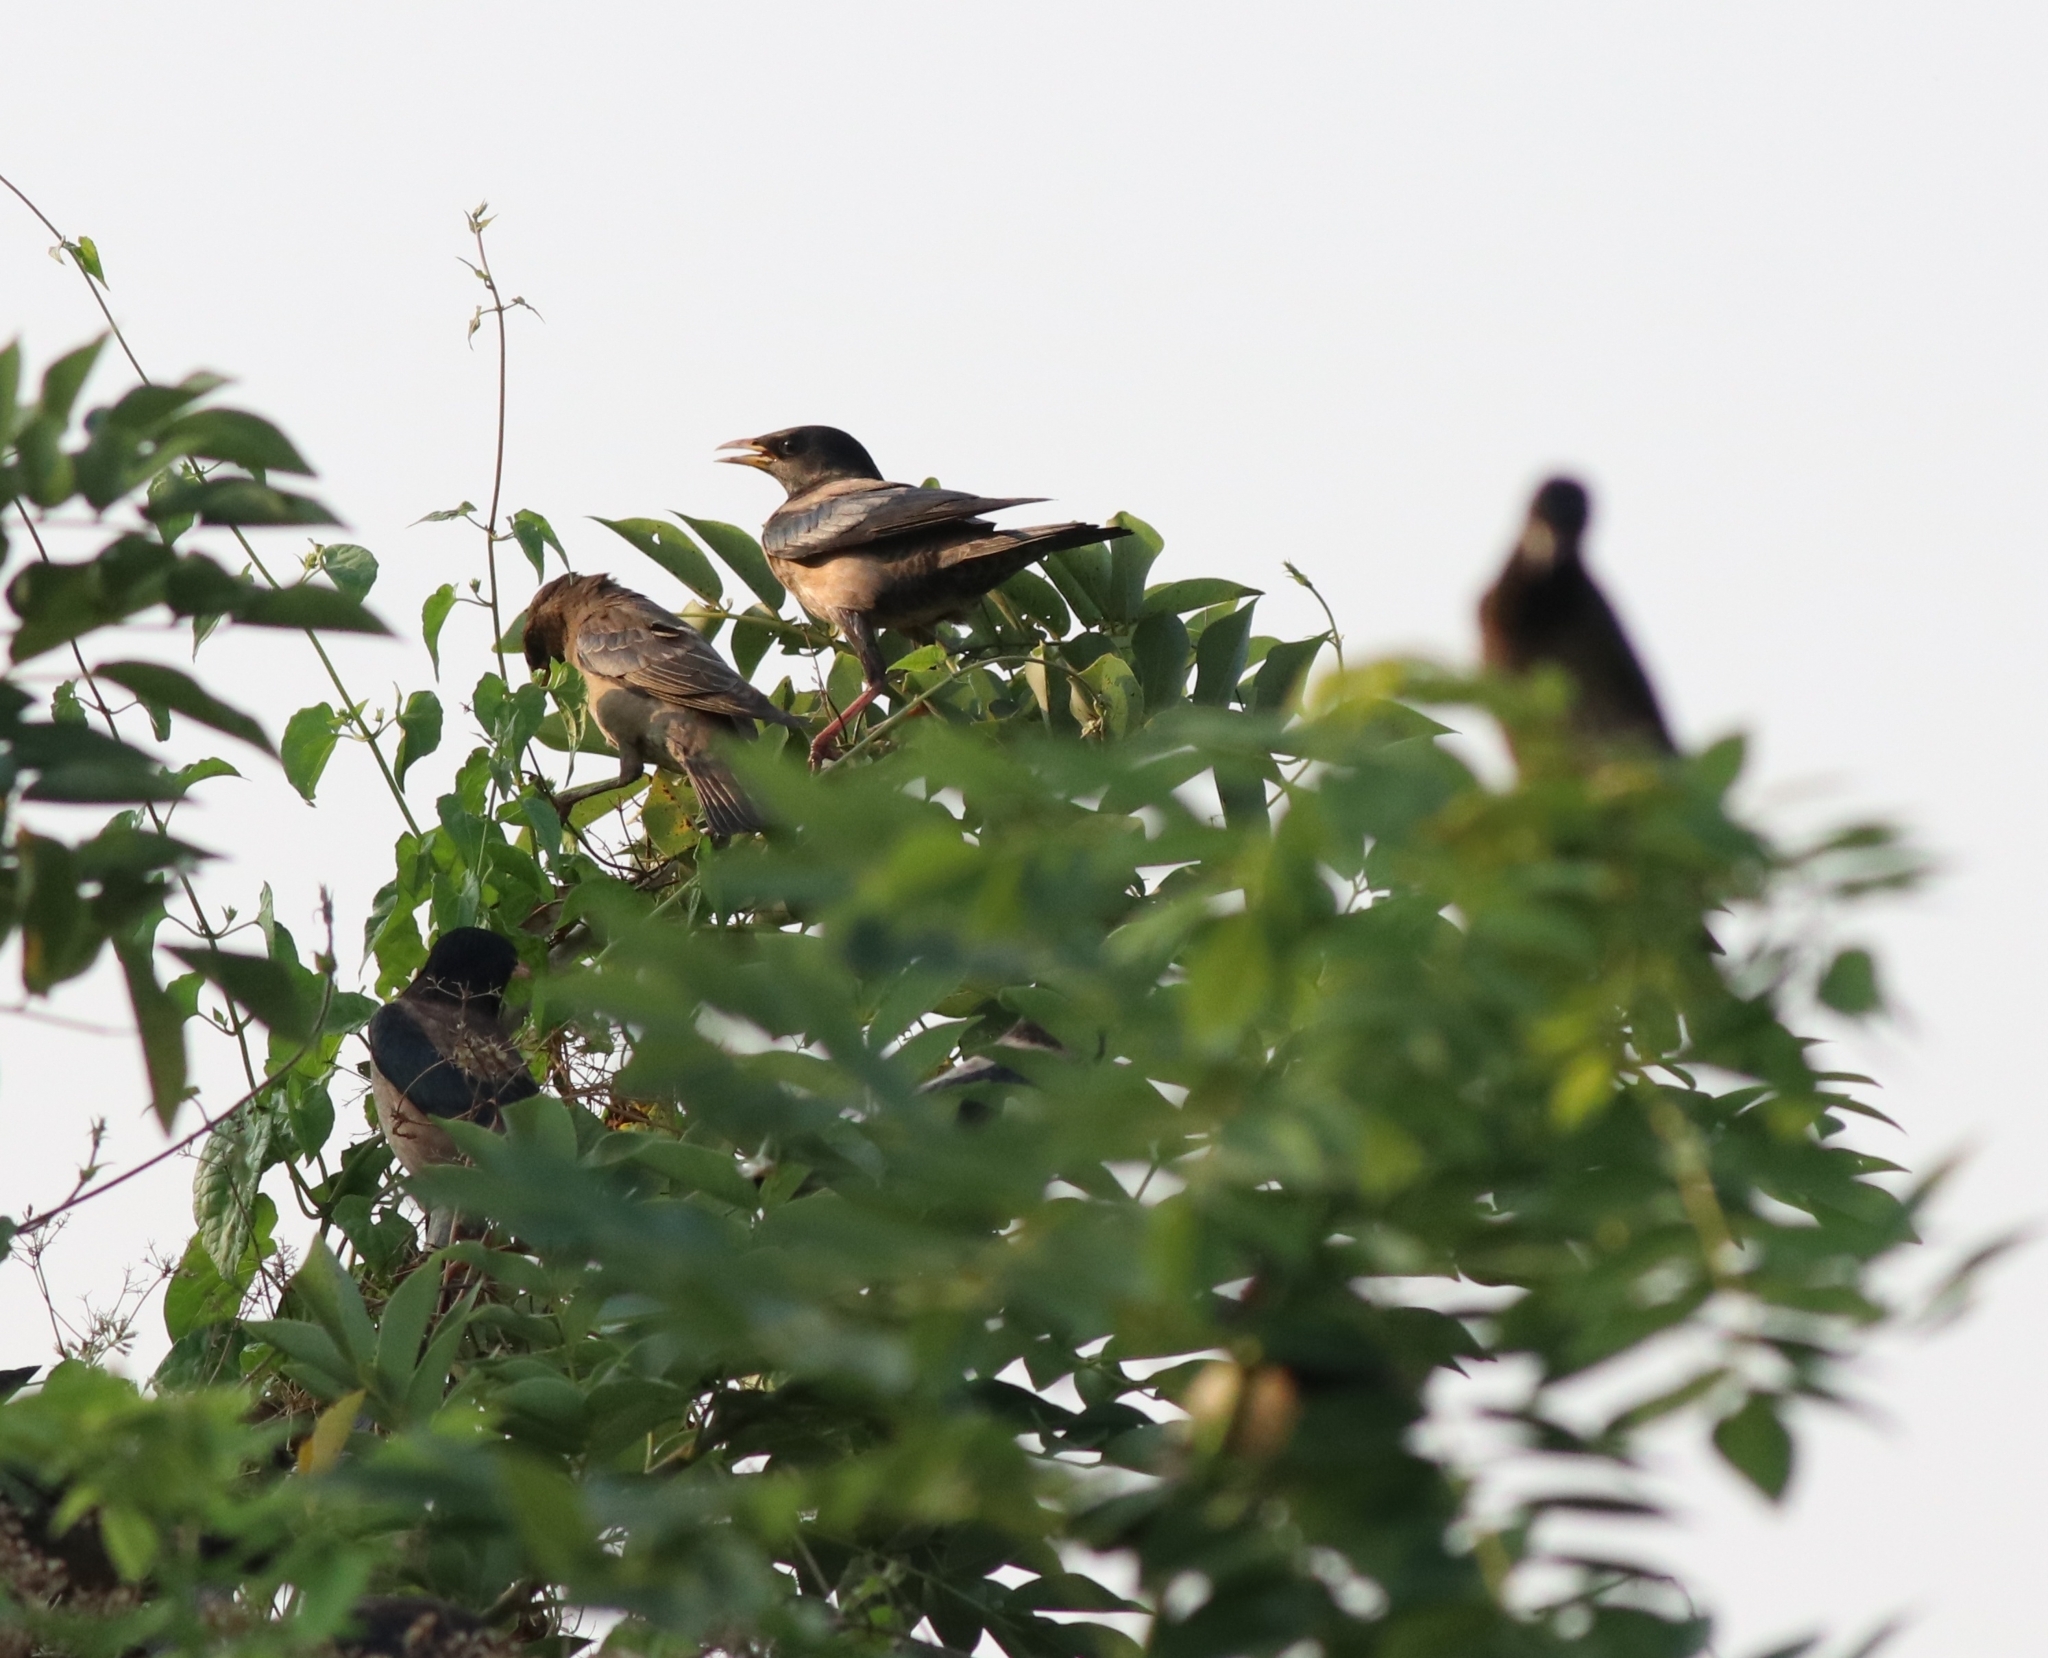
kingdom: Animalia
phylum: Chordata
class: Aves
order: Passeriformes
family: Sturnidae
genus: Pastor
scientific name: Pastor roseus
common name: Rosy starling
